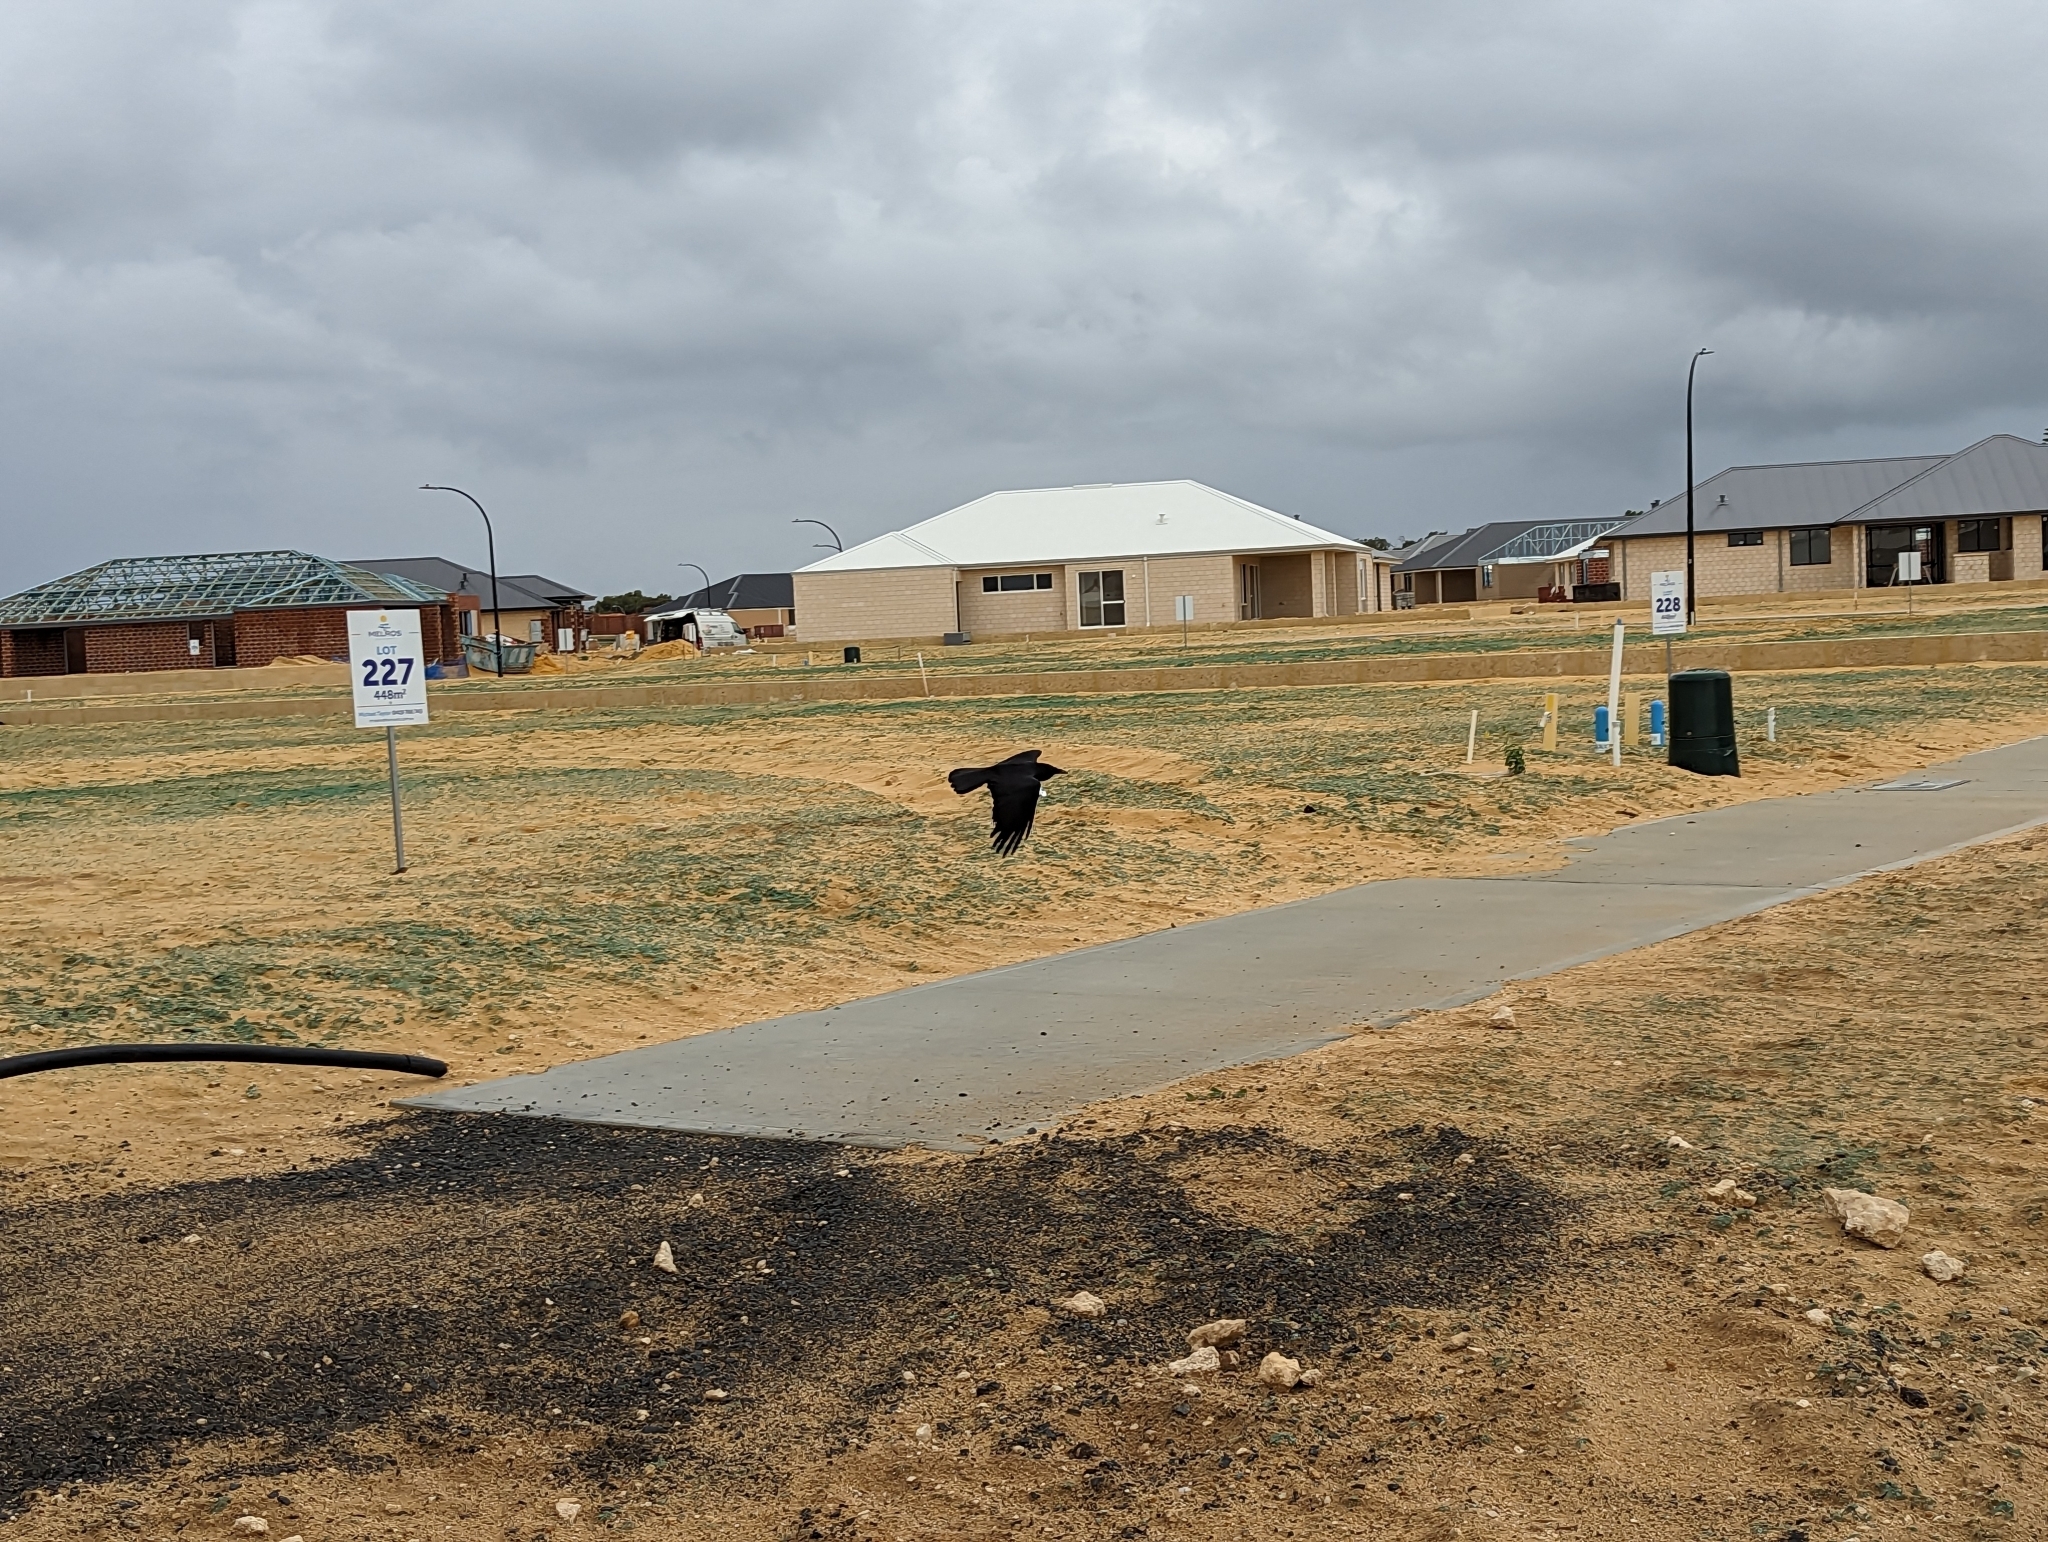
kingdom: Animalia
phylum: Chordata
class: Aves
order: Passeriformes
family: Corvidae
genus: Corvus
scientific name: Corvus coronoides
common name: Australian raven
